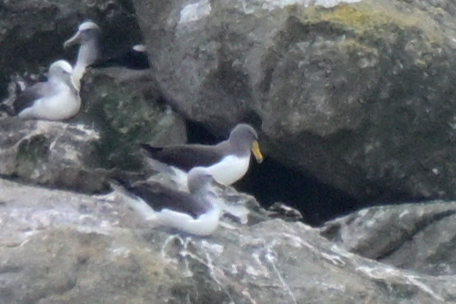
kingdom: Animalia
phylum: Chordata
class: Aves
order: Procellariiformes
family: Diomedeidae
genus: Thalassarche
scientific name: Thalassarche eremita
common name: Chatham albatross
